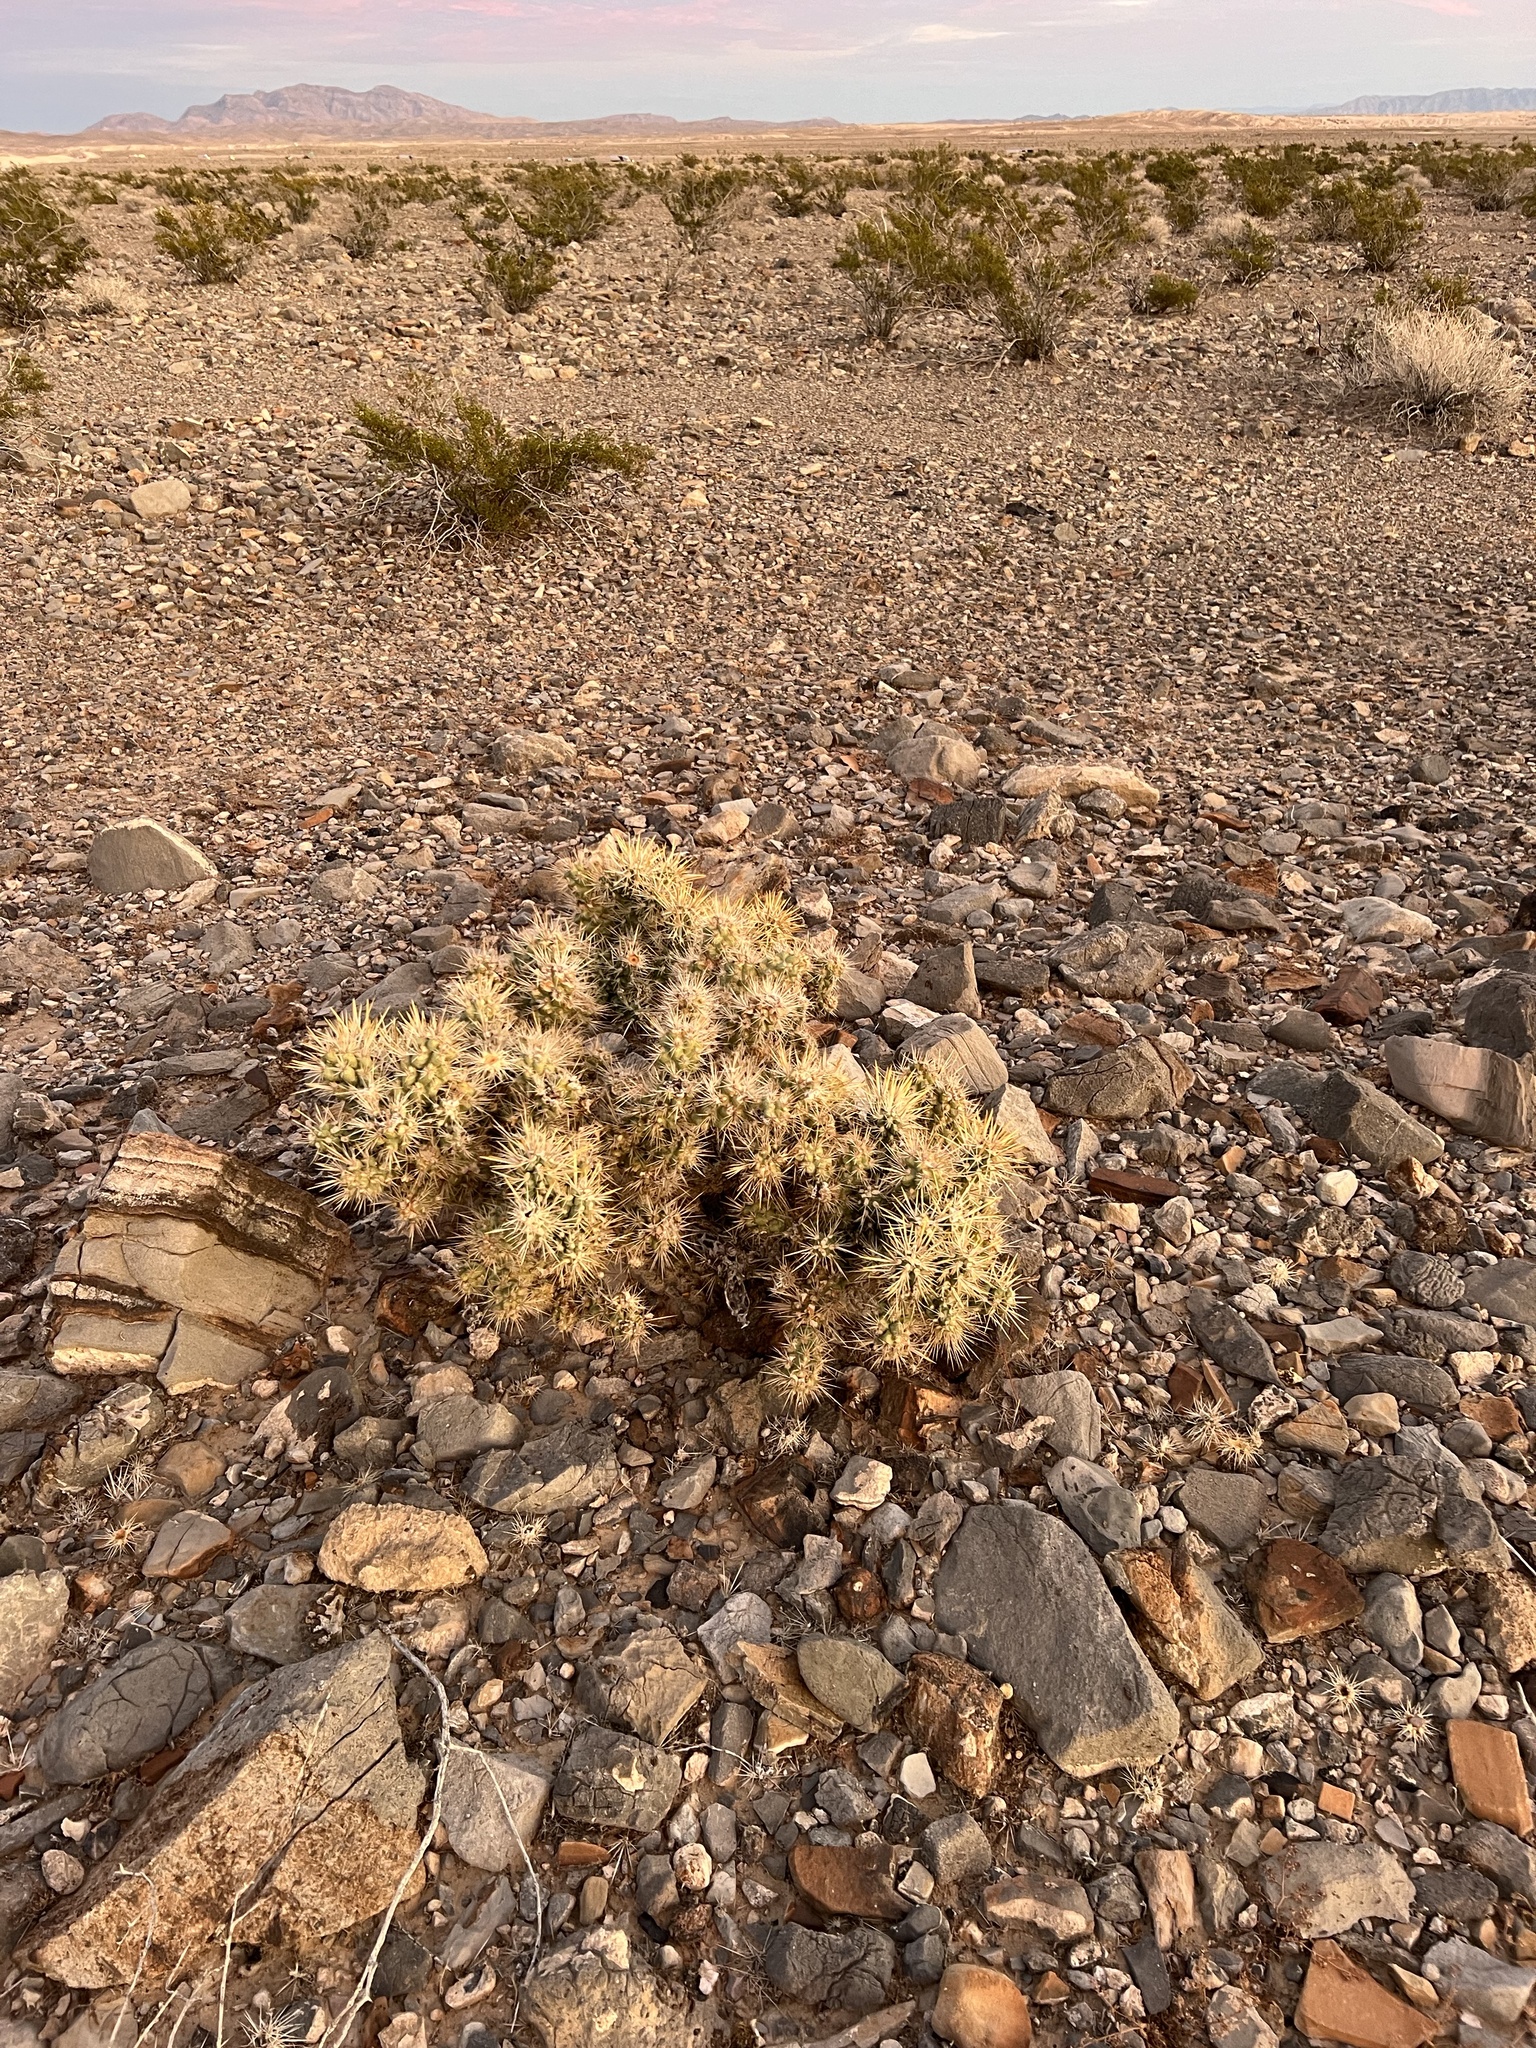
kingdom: Plantae
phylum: Tracheophyta
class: Magnoliopsida
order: Caryophyllales
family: Cactaceae
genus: Cylindropuntia
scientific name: Cylindropuntia echinocarpa
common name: Ground cholla
